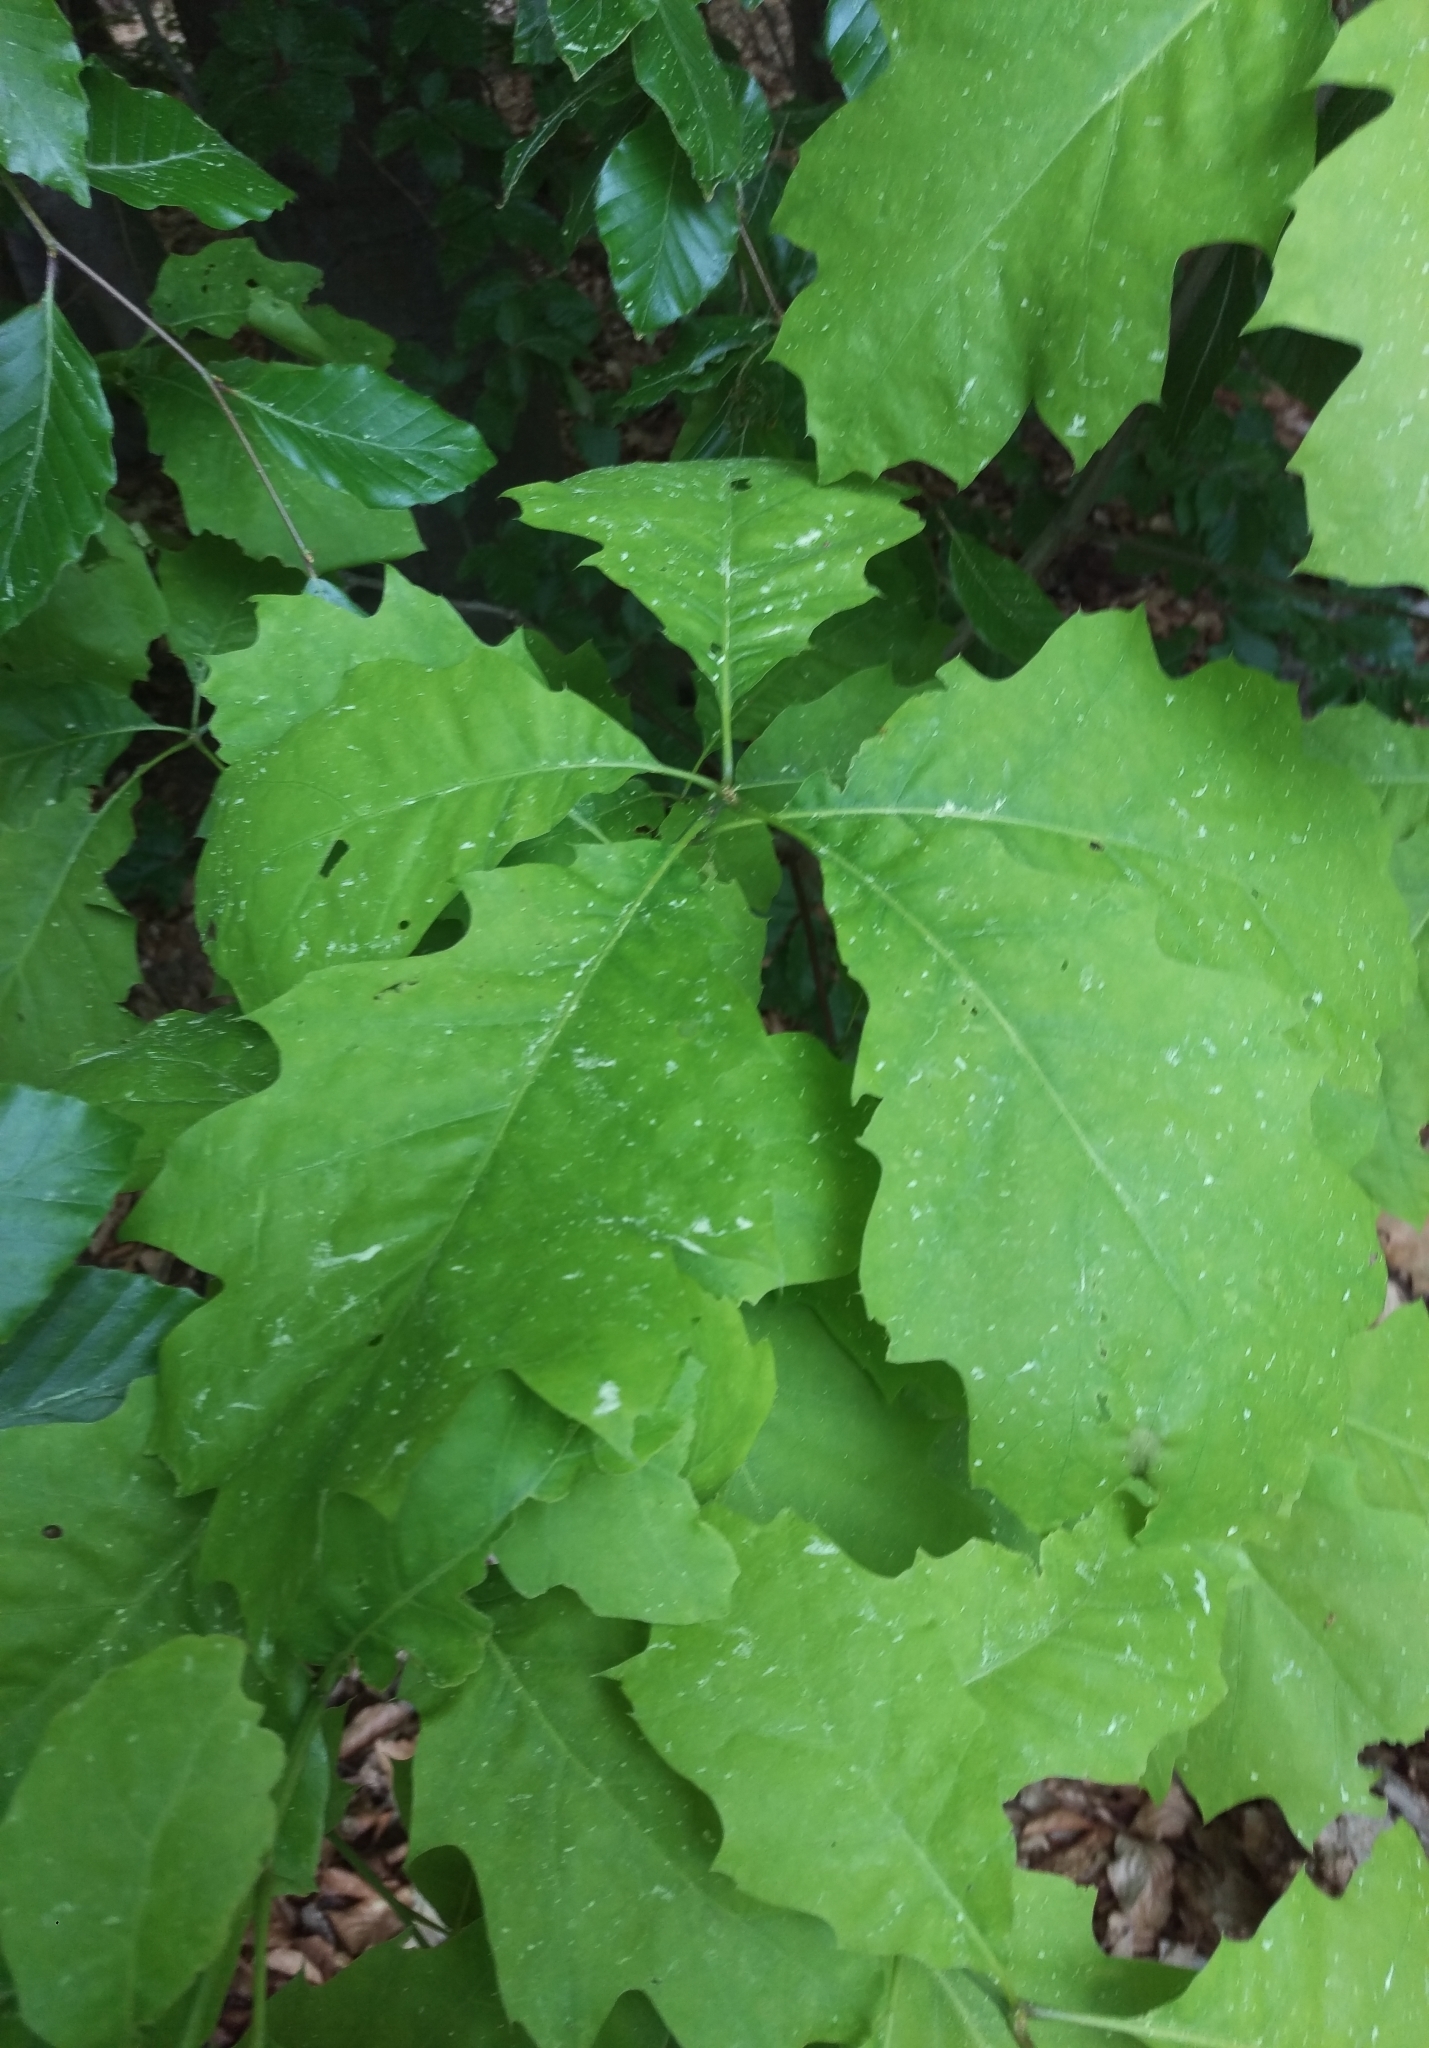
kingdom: Plantae
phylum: Tracheophyta
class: Magnoliopsida
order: Fagales
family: Fagaceae
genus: Quercus
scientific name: Quercus rubra
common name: Red oak
